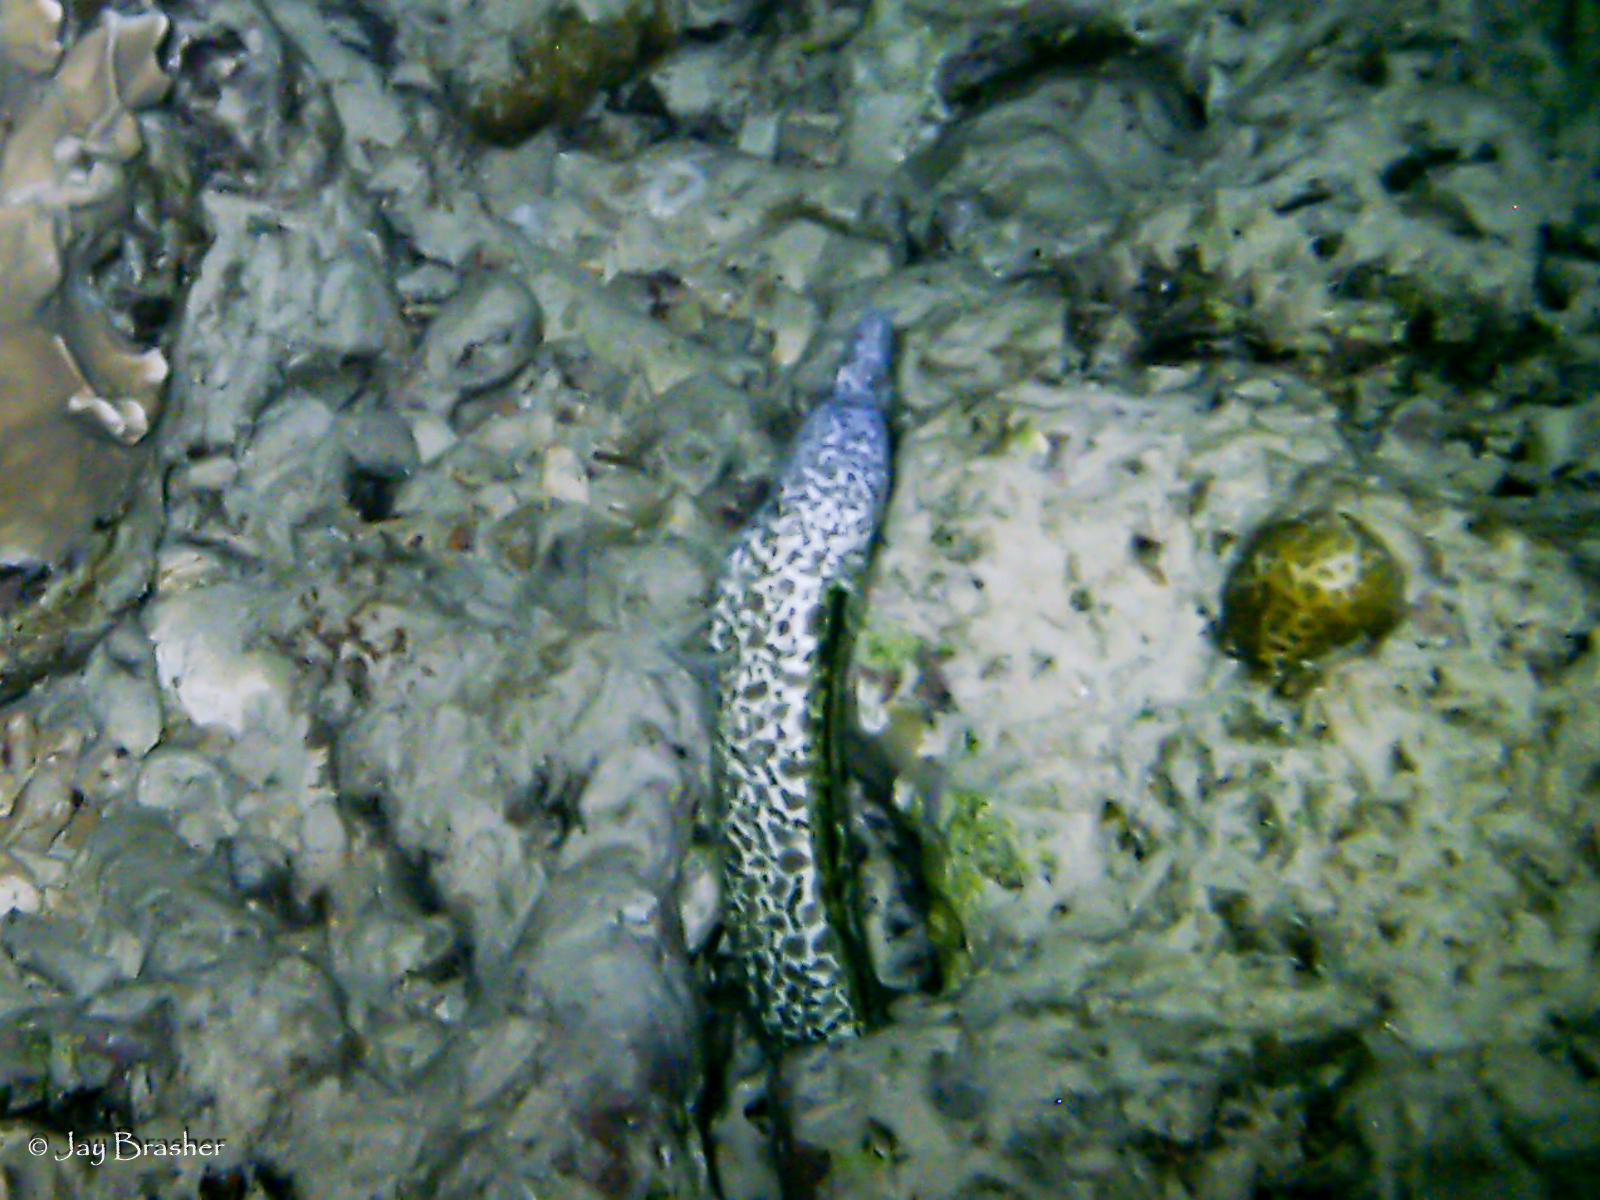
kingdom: Animalia
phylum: Chordata
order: Anguilliformes
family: Muraenidae
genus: Gymnothorax
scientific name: Gymnothorax moringa
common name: Spotted moray
